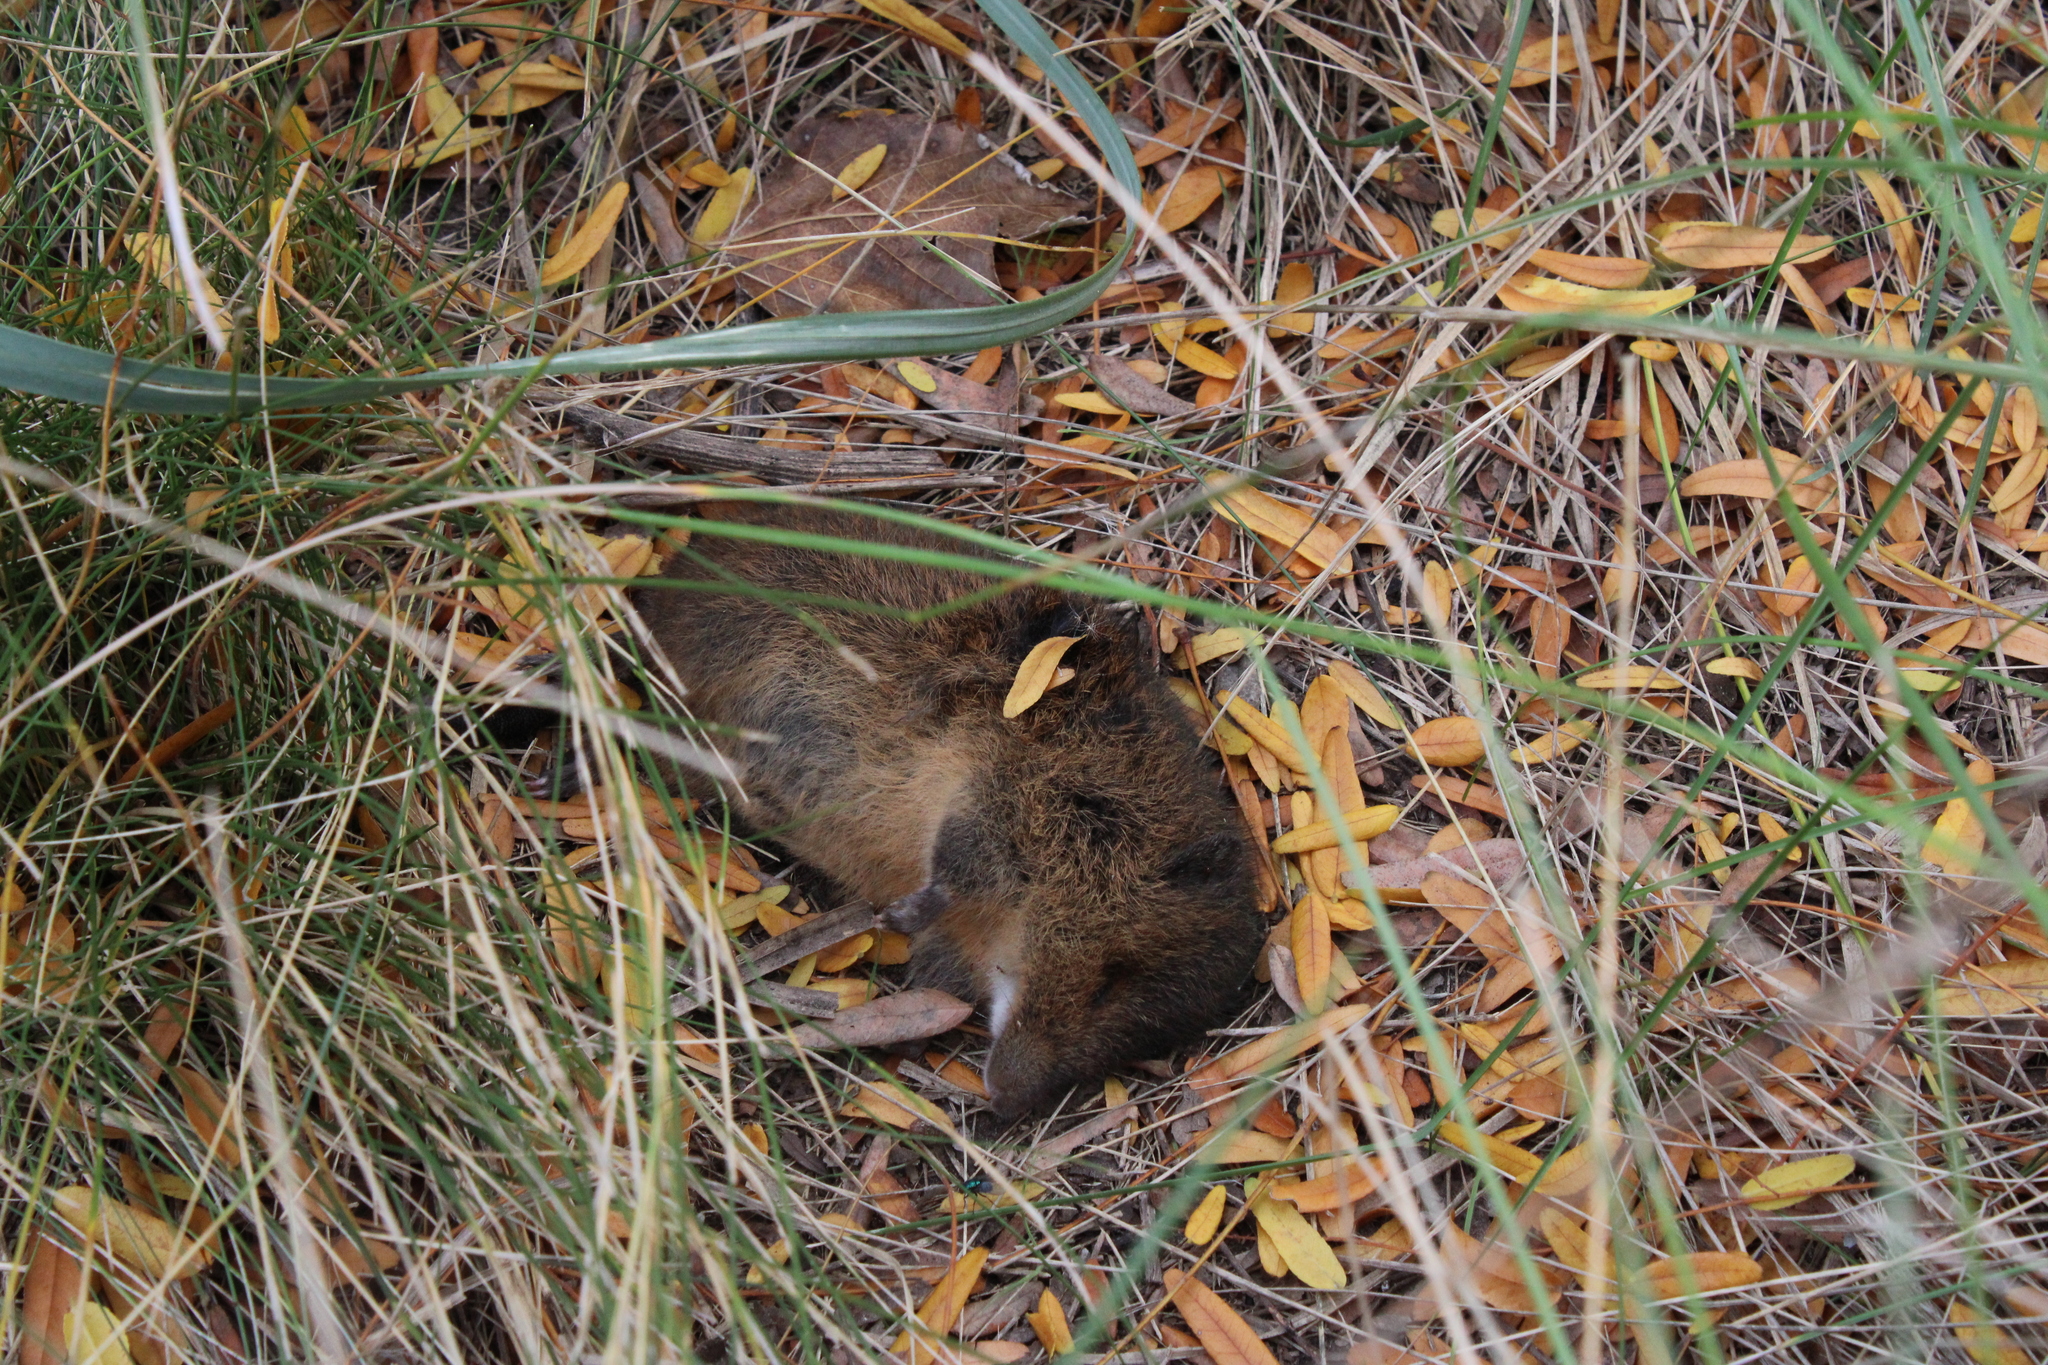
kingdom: Animalia
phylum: Chordata
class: Mammalia
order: Rodentia
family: Cricetidae
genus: Oxymycterus
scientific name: Oxymycterus rufus
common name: Red hocicudo
